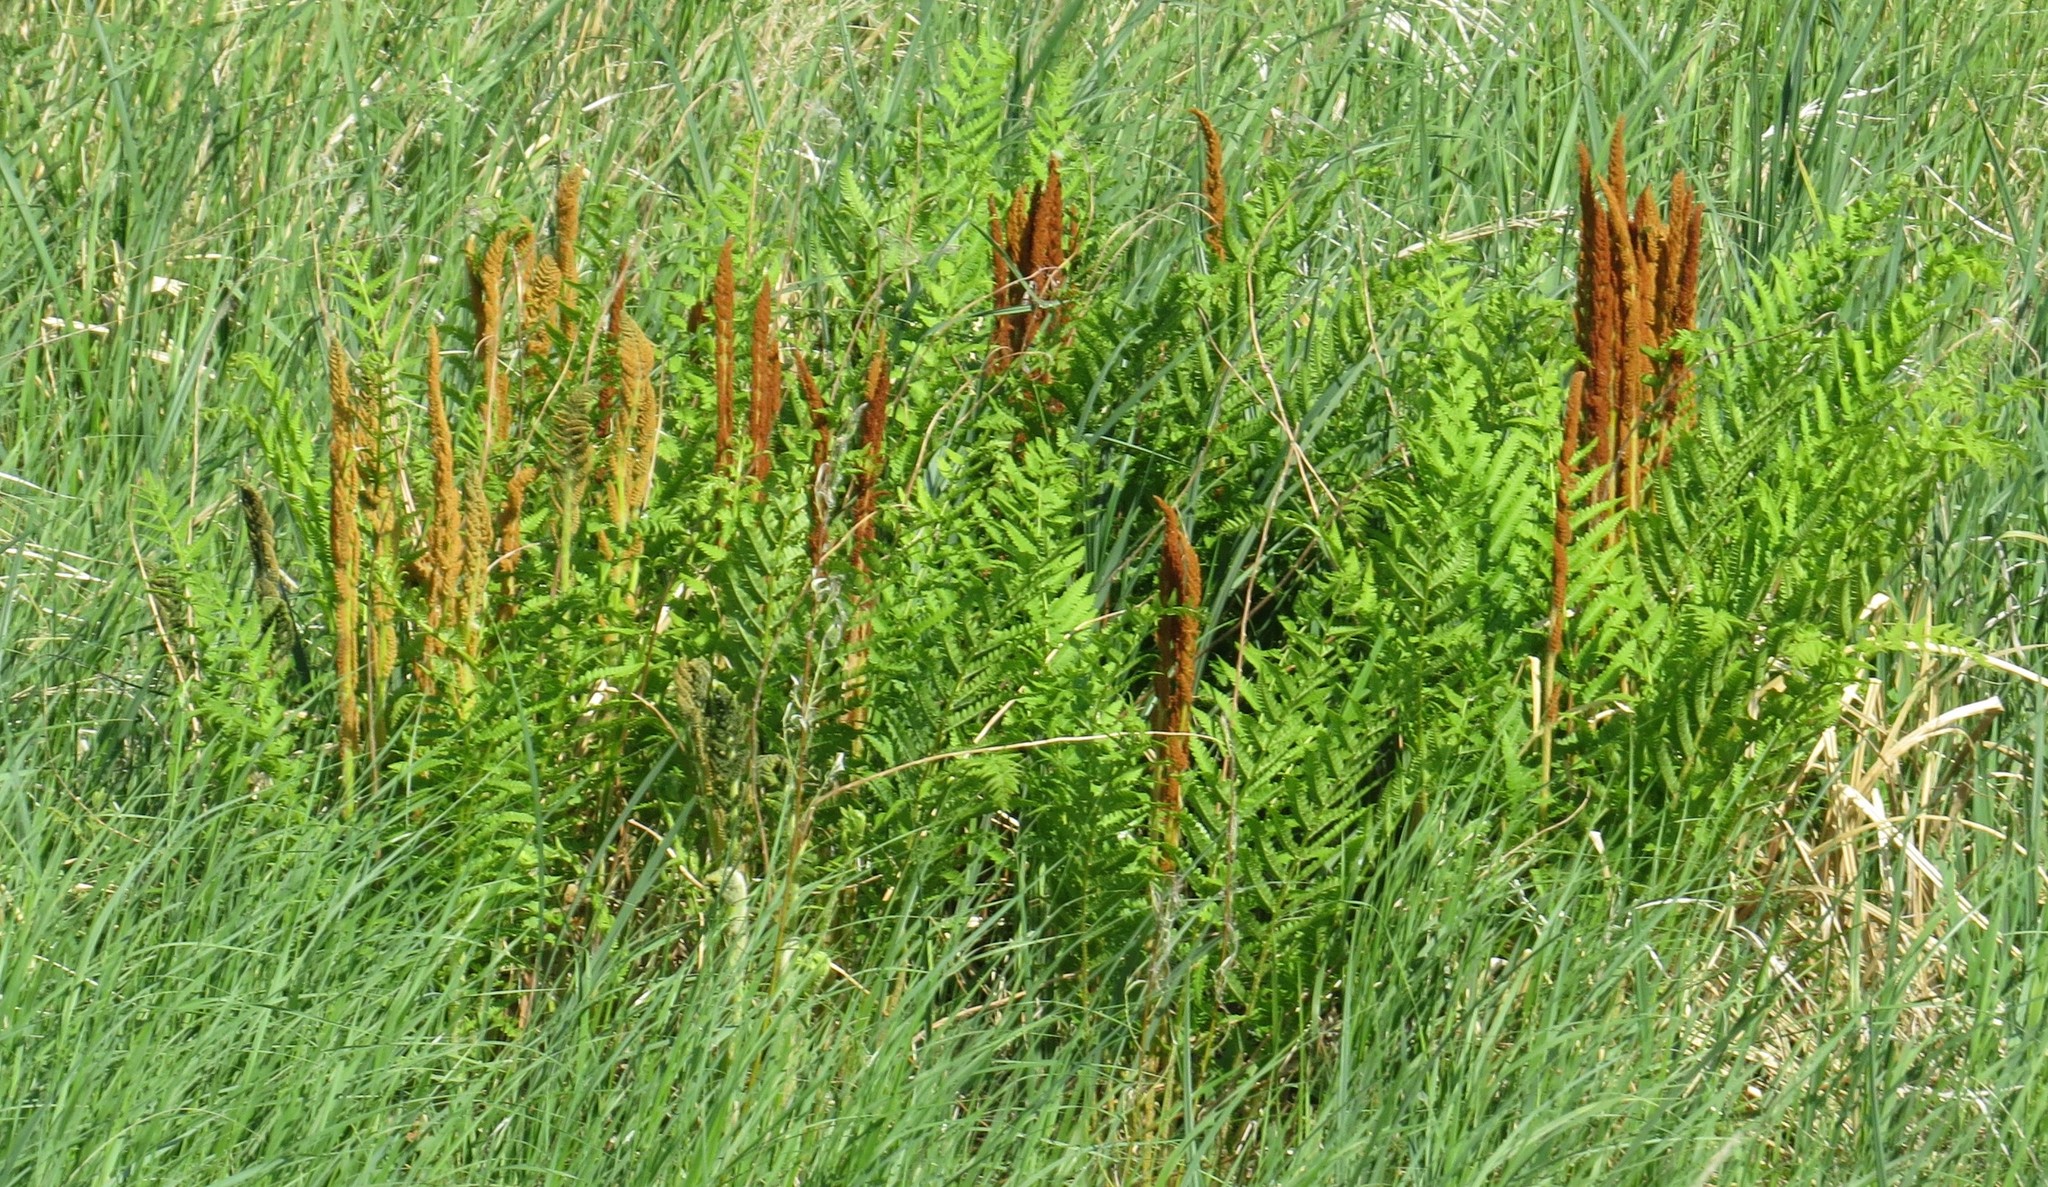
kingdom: Plantae
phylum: Tracheophyta
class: Polypodiopsida
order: Osmundales
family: Osmundaceae
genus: Osmundastrum
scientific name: Osmundastrum cinnamomeum
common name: Cinnamon fern
